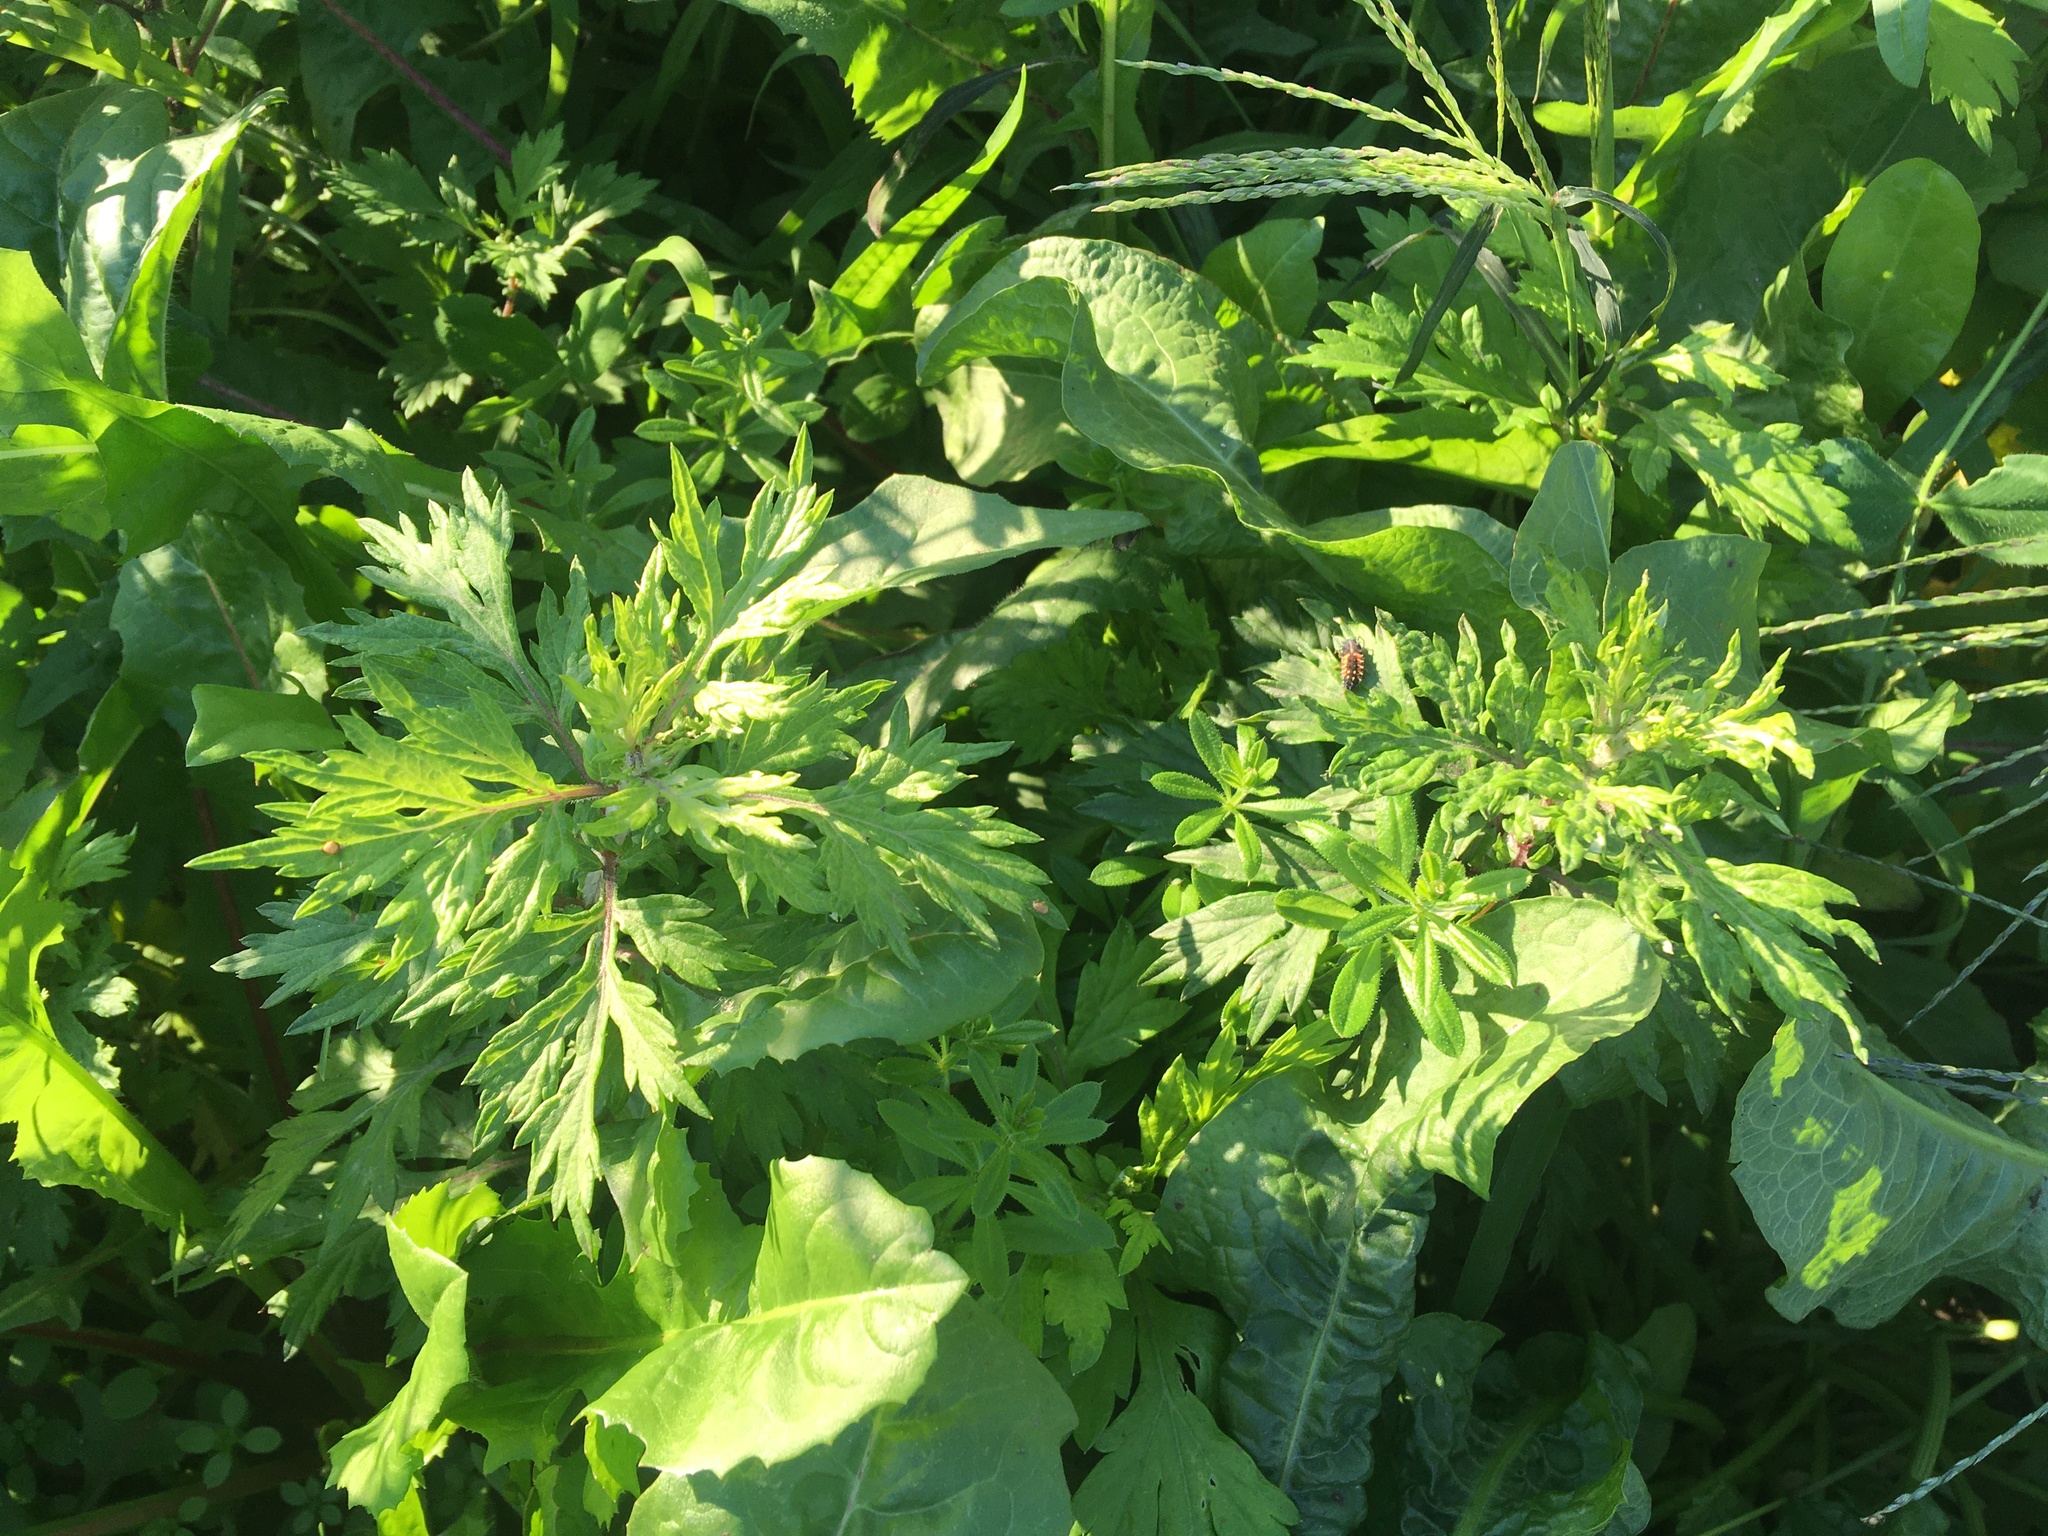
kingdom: Plantae
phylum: Tracheophyta
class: Magnoliopsida
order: Asterales
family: Asteraceae
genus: Artemisia
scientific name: Artemisia vulgaris
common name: Mugwort
